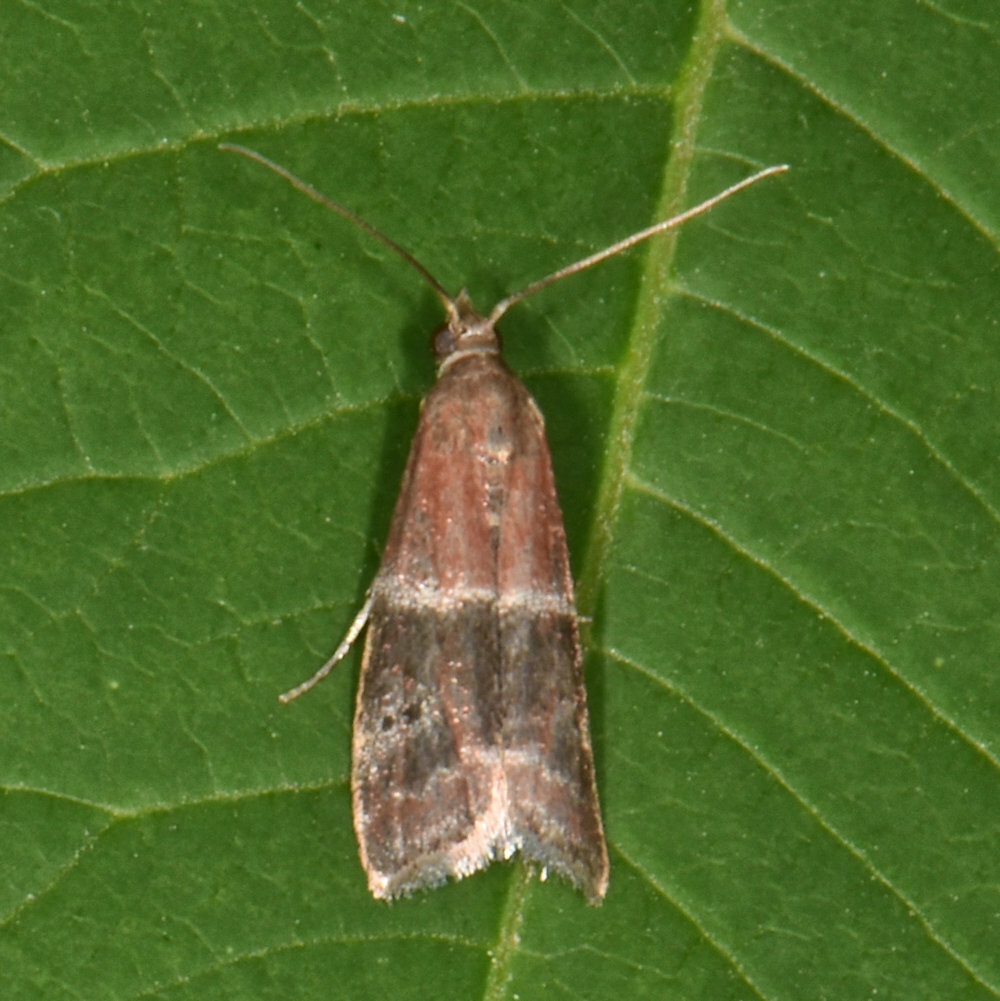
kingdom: Animalia
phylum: Arthropoda
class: Insecta
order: Lepidoptera
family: Pyralidae
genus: Moodna
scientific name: Moodna ostrinella
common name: Darker moodna moth
